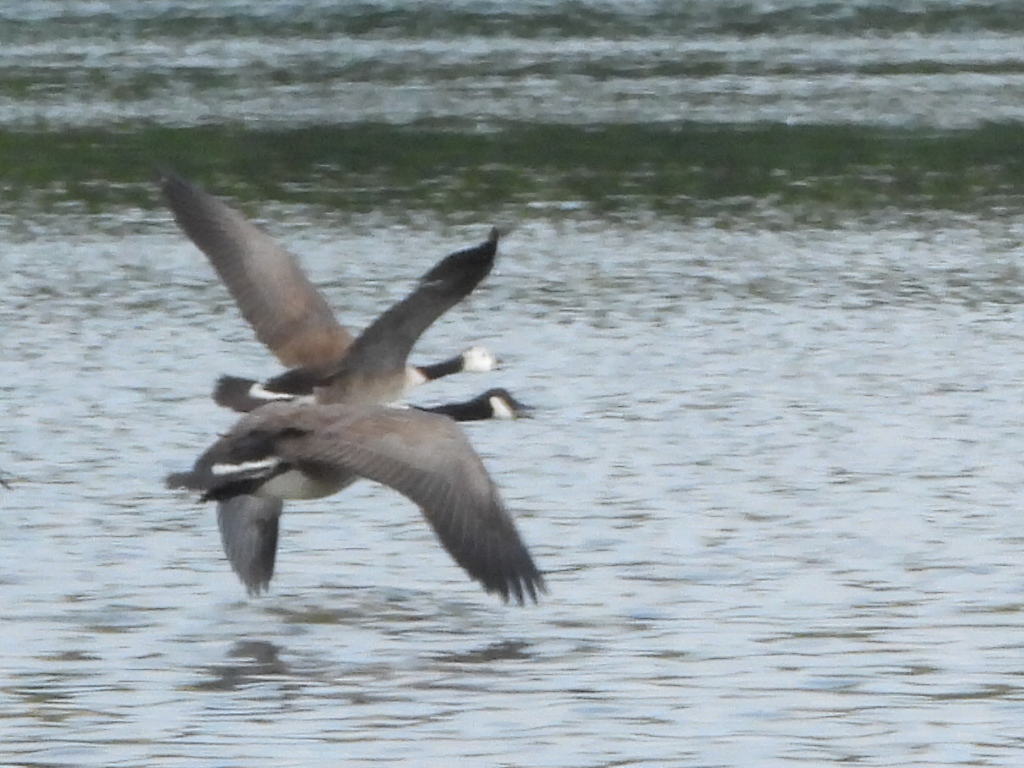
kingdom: Animalia
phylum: Chordata
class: Aves
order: Anseriformes
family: Anatidae
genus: Branta
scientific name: Branta canadensis
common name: Canada goose
